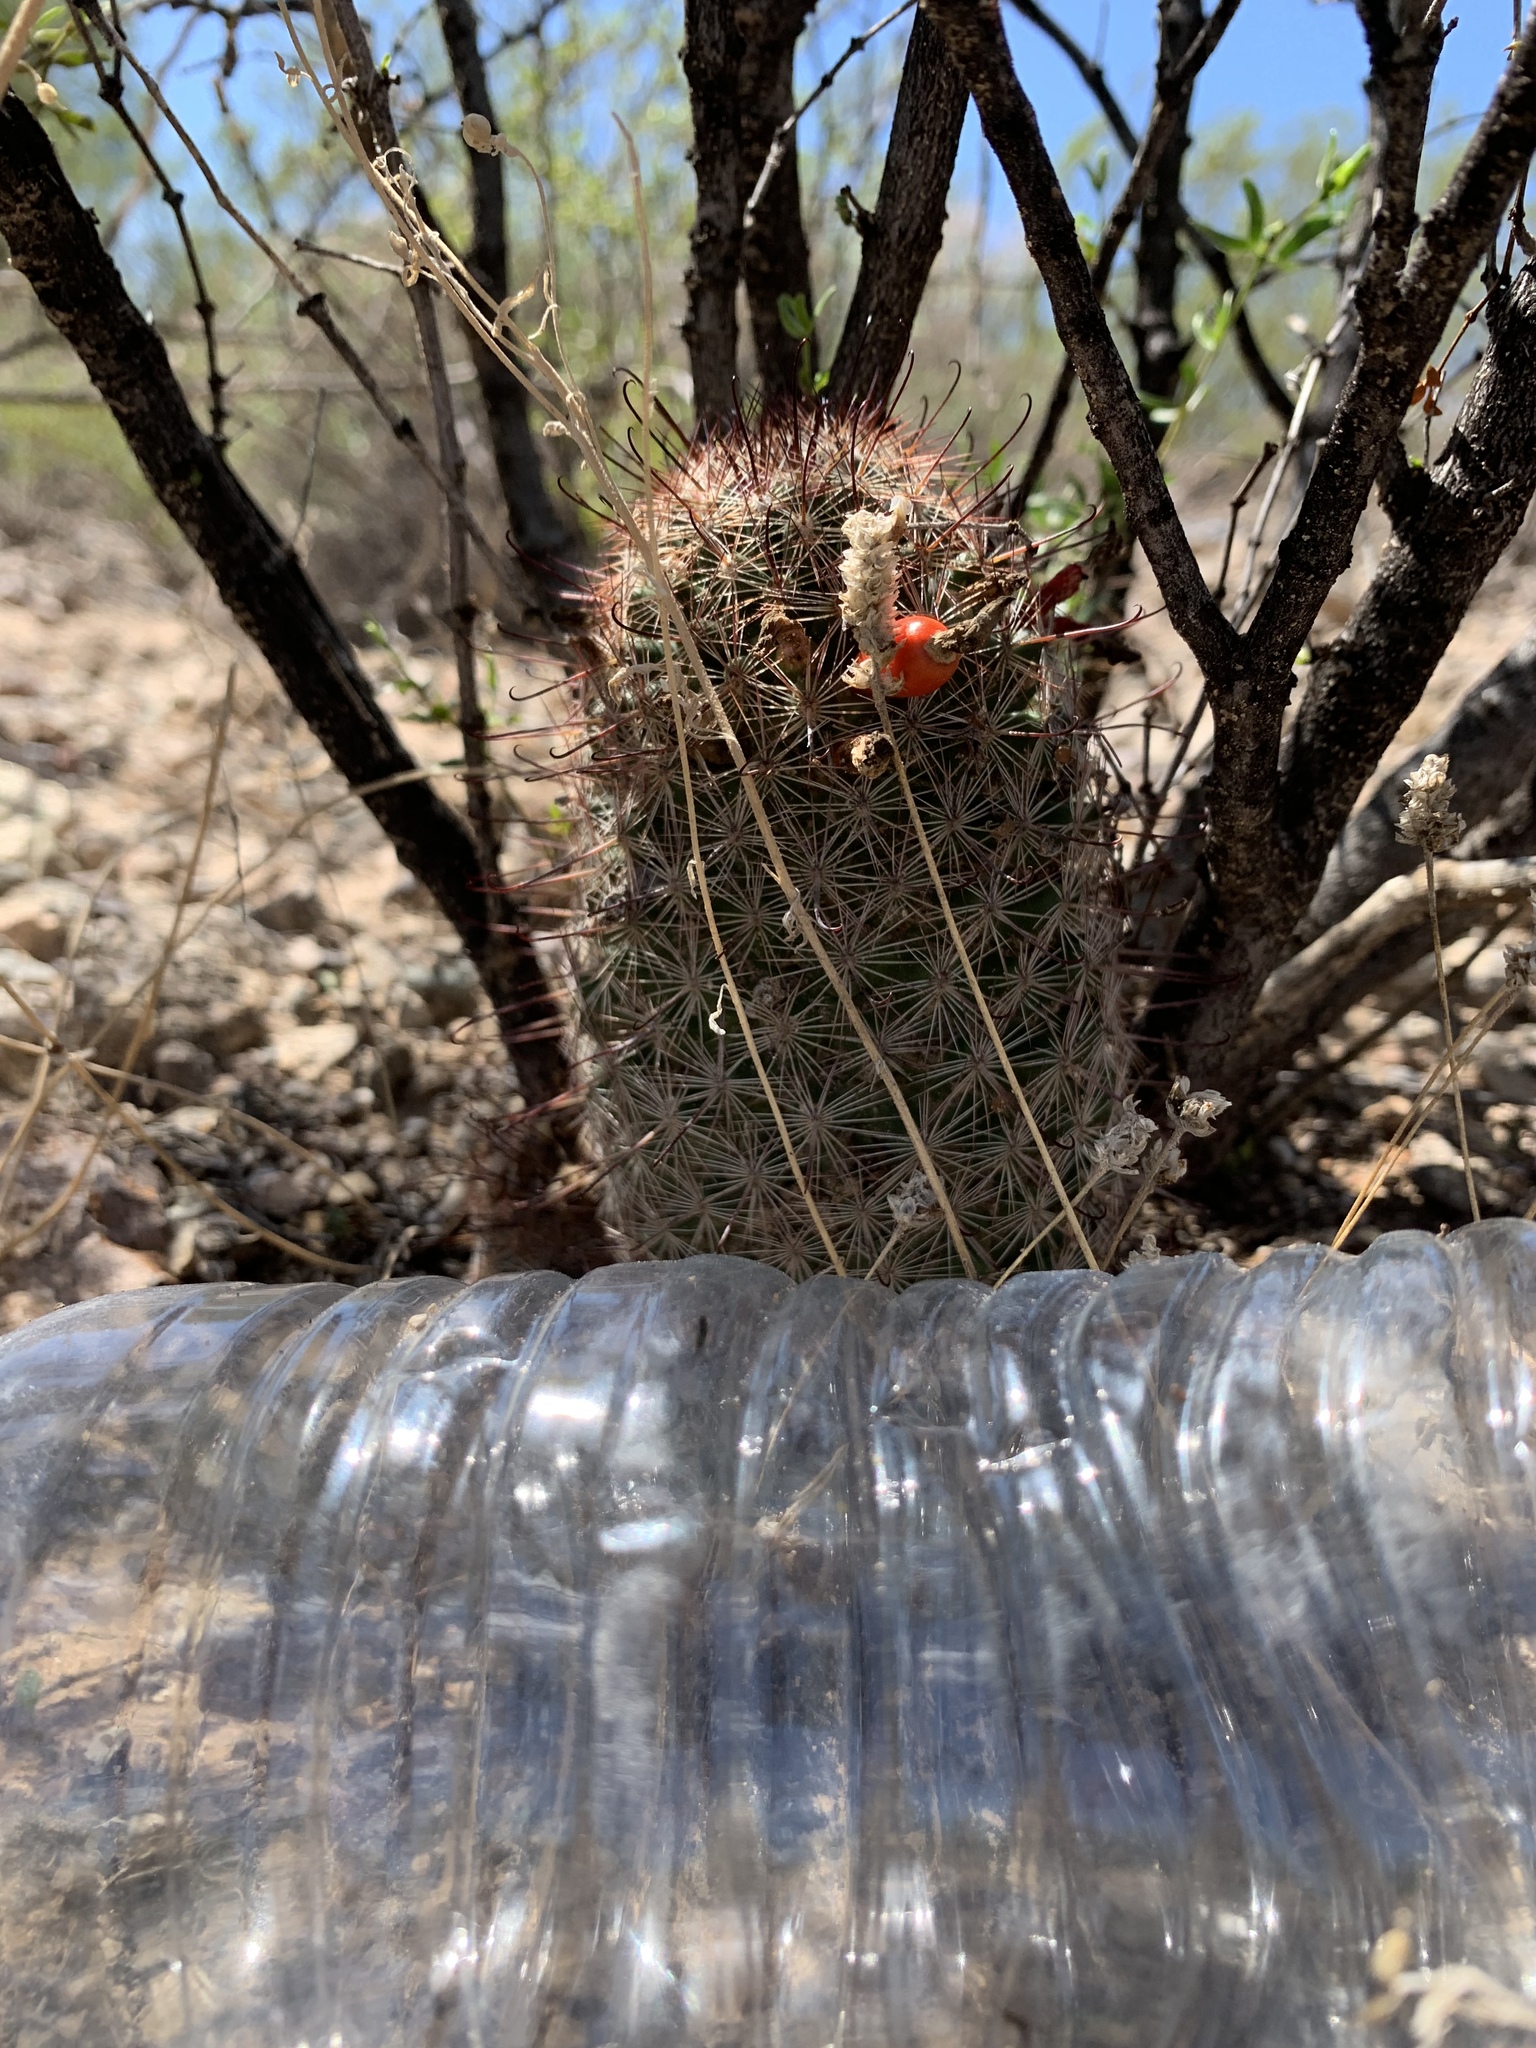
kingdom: Plantae
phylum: Tracheophyta
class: Magnoliopsida
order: Caryophyllales
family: Cactaceae
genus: Cochemiea
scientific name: Cochemiea grahamii
